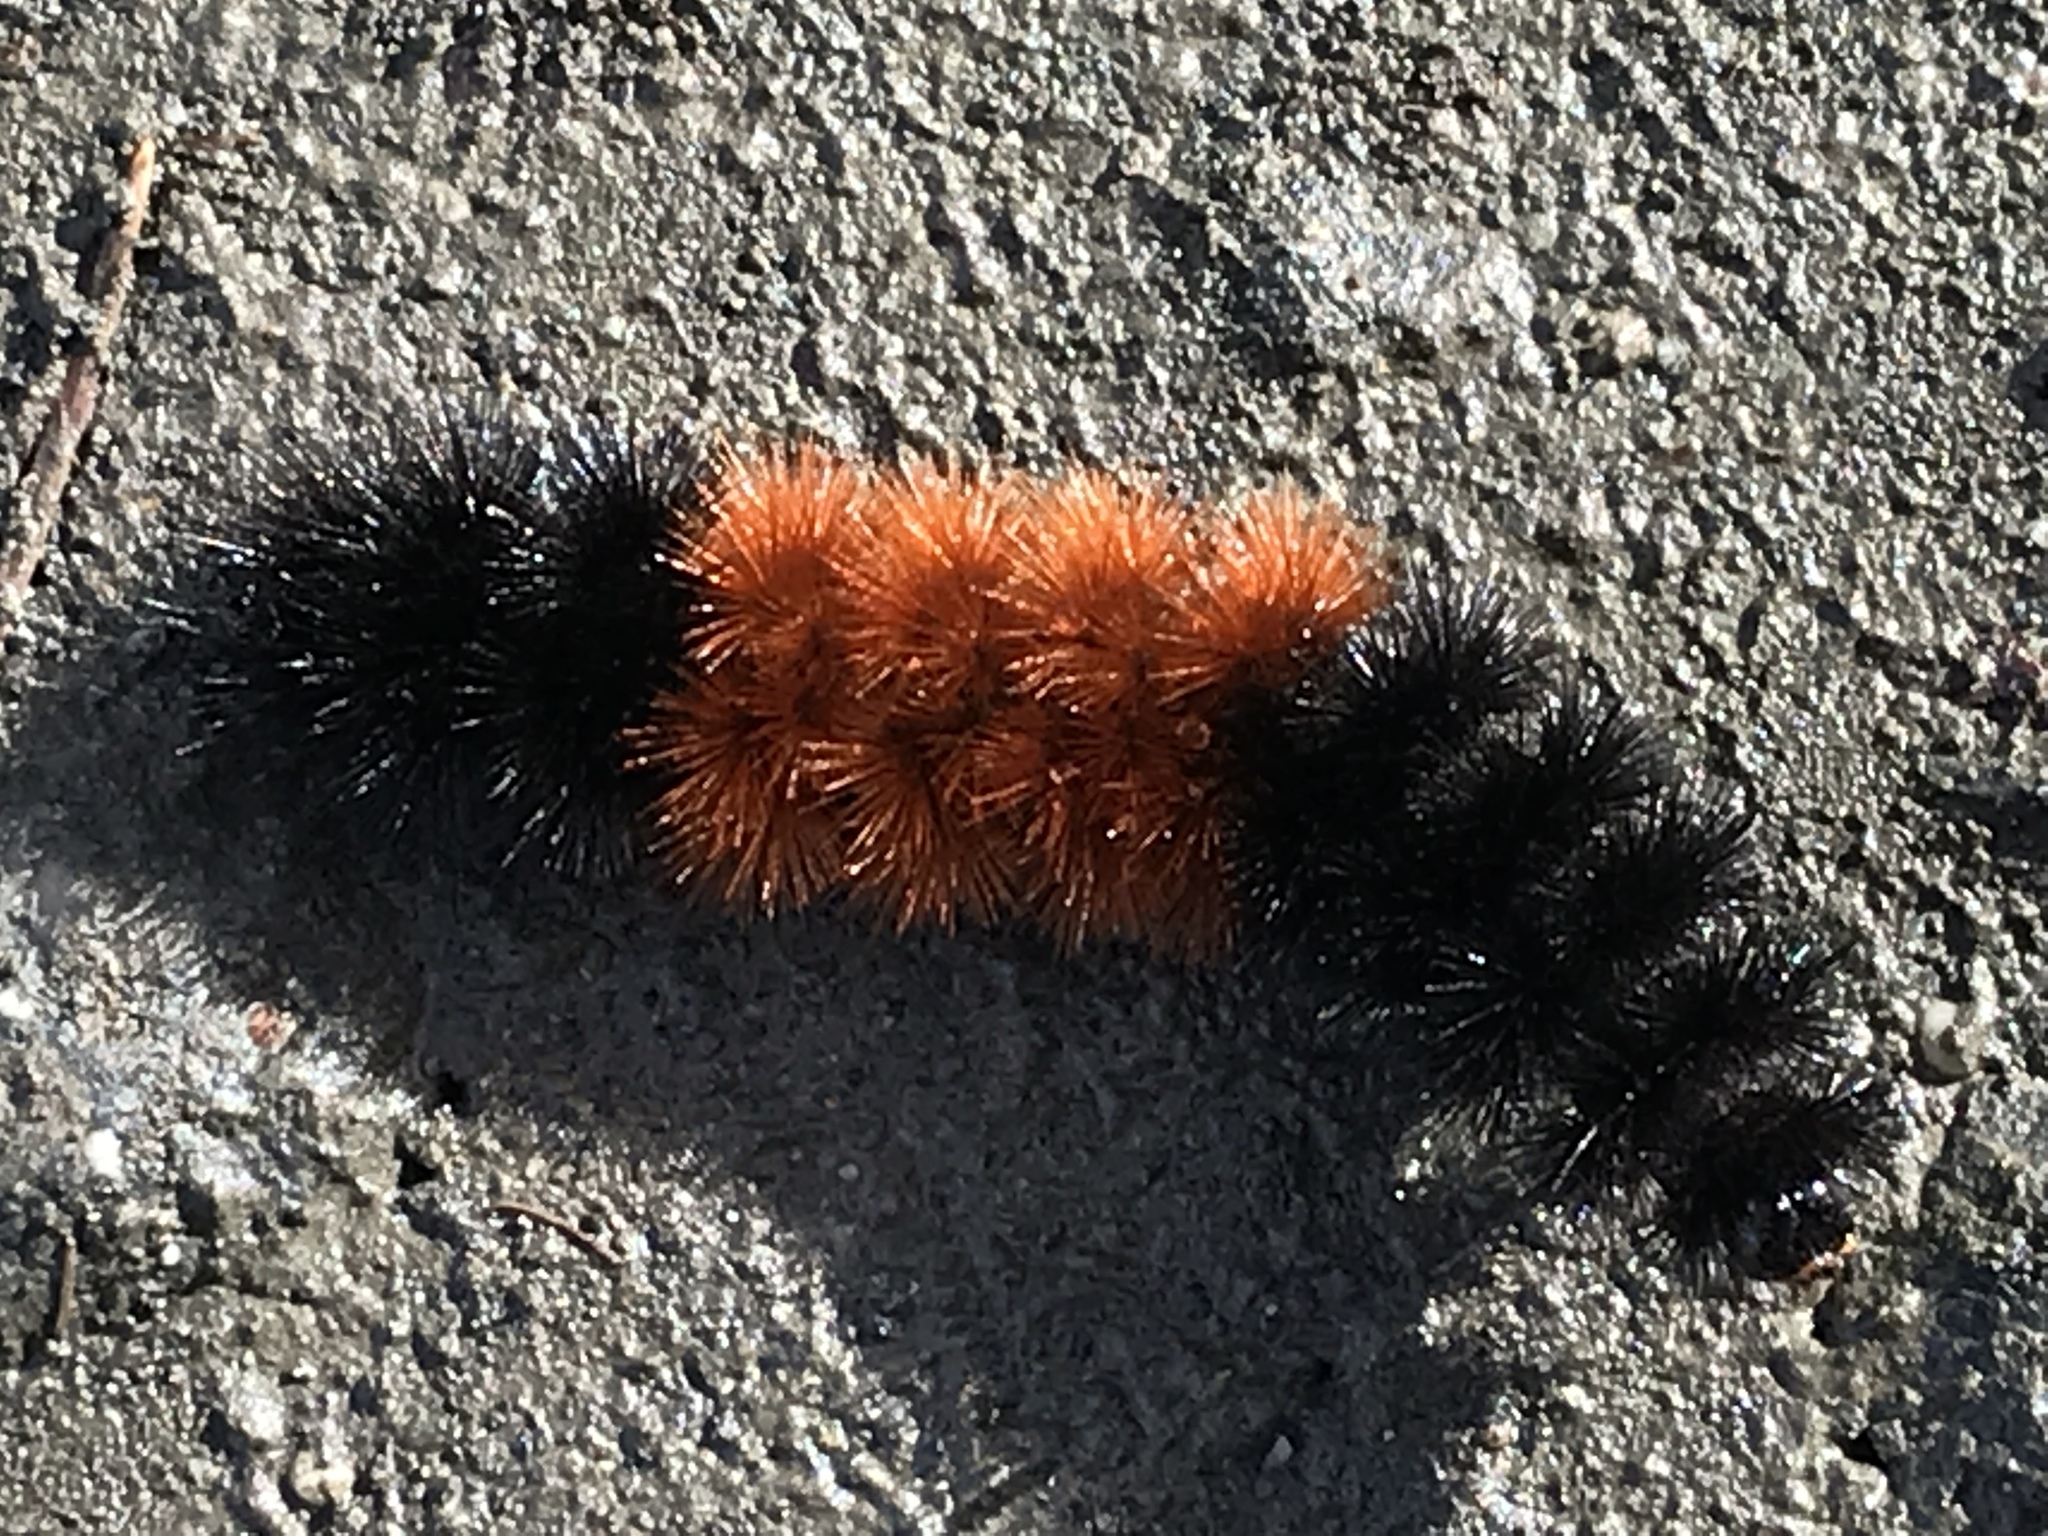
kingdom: Animalia
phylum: Arthropoda
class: Insecta
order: Lepidoptera
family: Erebidae
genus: Pyrrharctia
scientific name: Pyrrharctia isabella
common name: Isabella tiger moth
